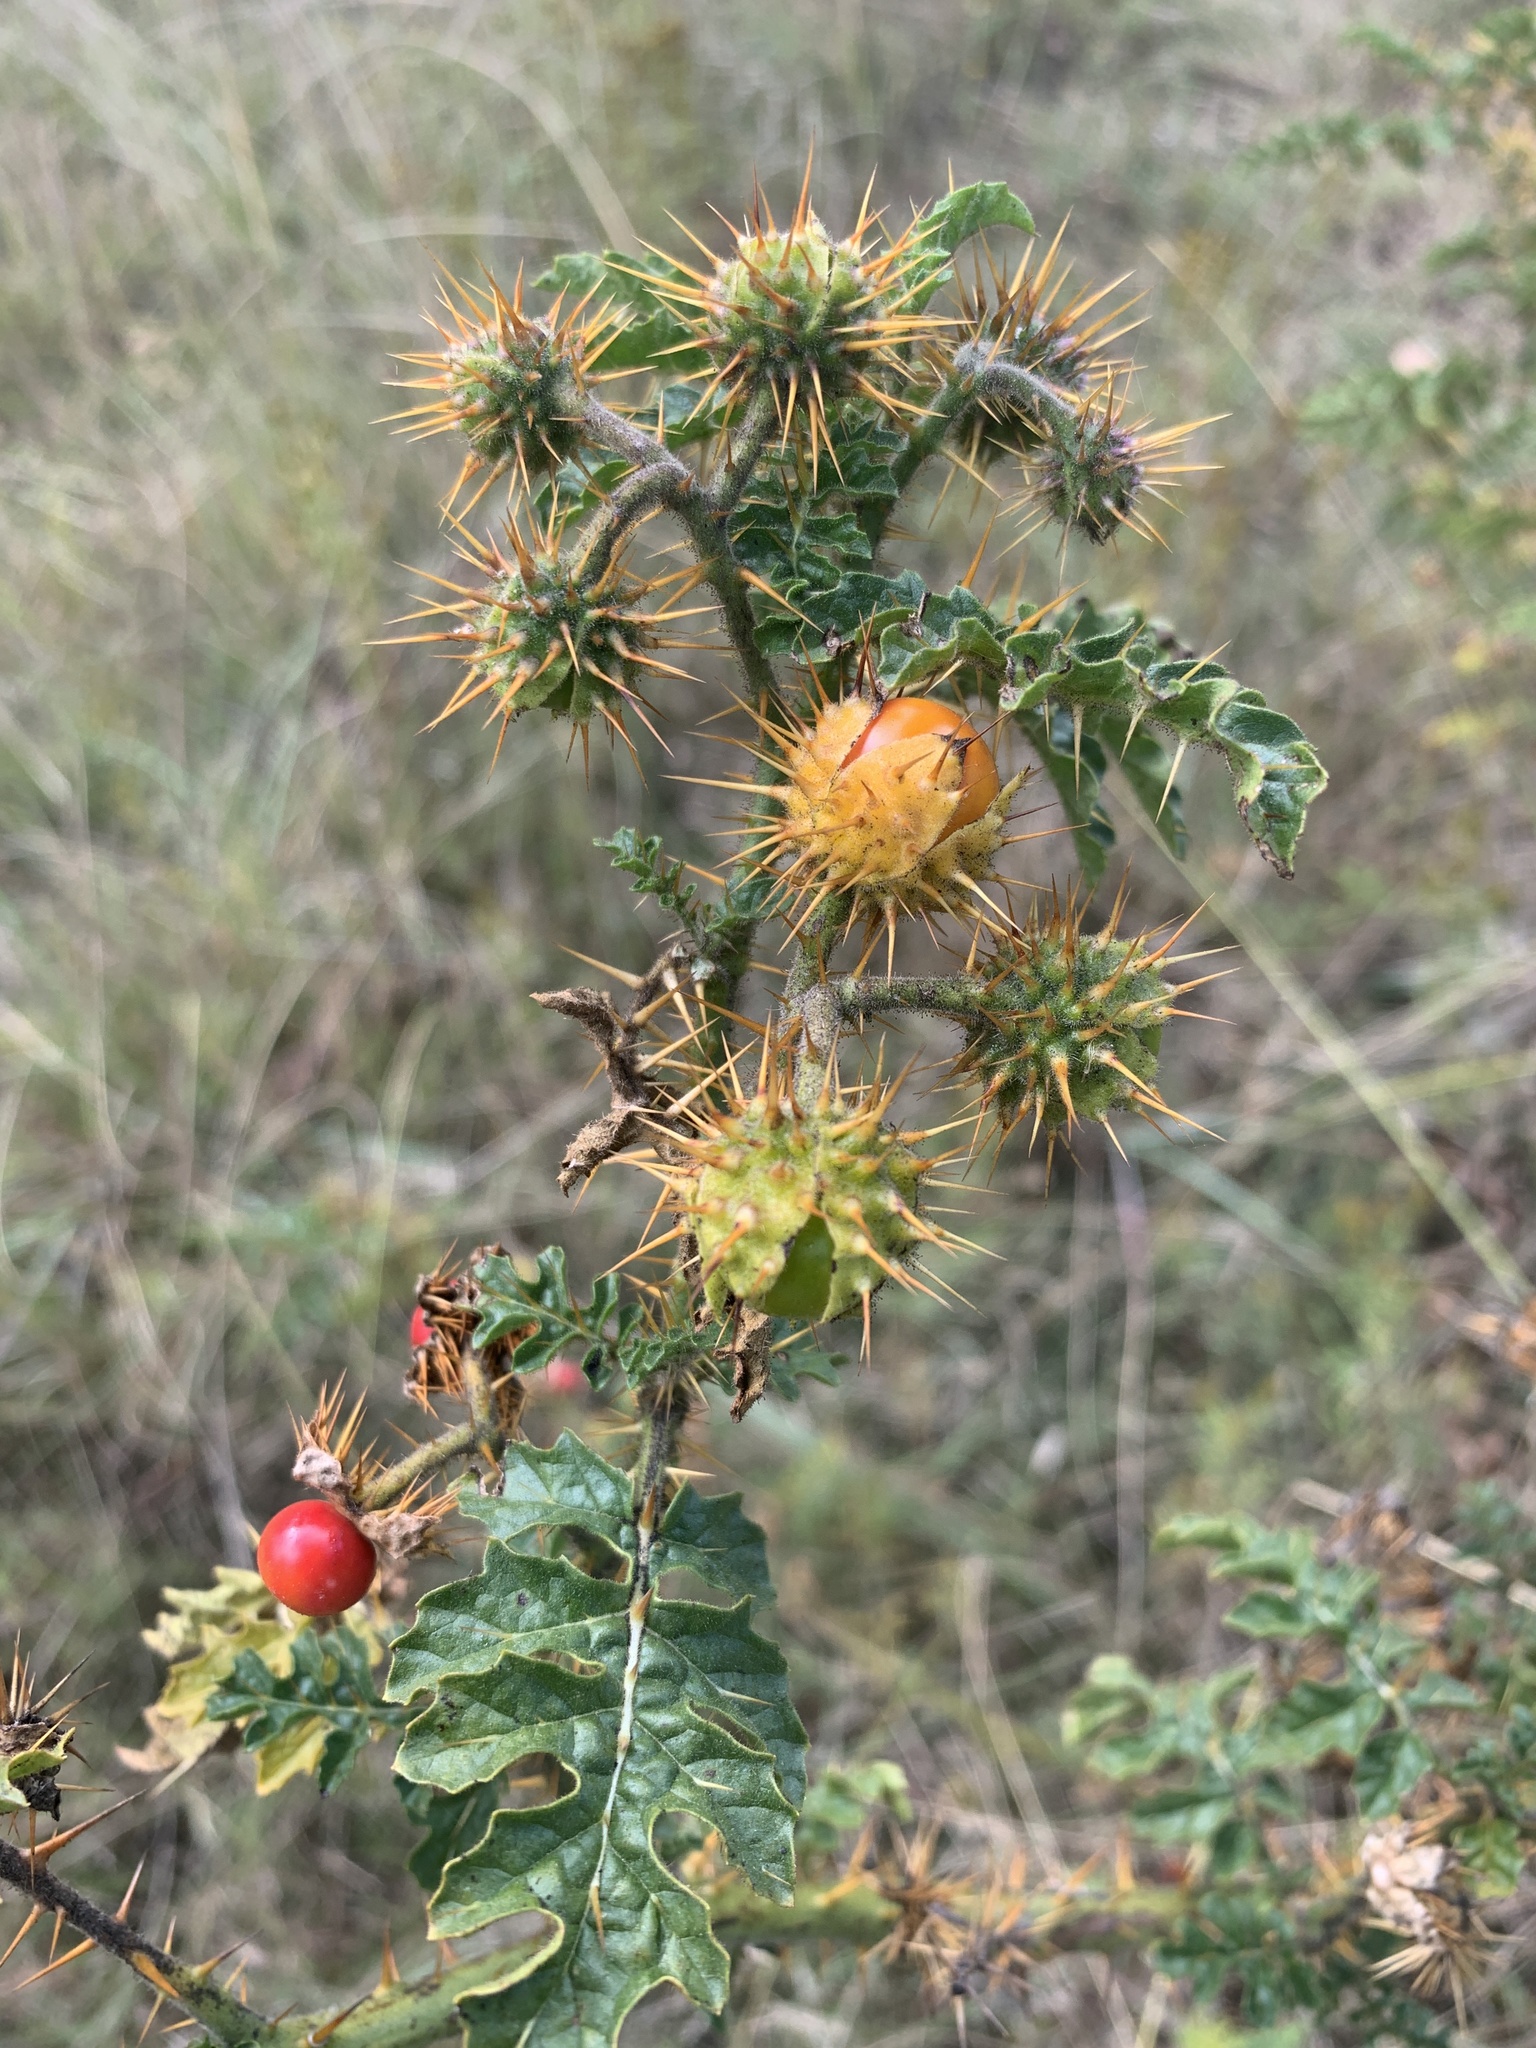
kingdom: Plantae
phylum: Tracheophyta
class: Magnoliopsida
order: Solanales
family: Solanaceae
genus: Solanum
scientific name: Solanum sisymbriifolium
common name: Red buffalo-bur
